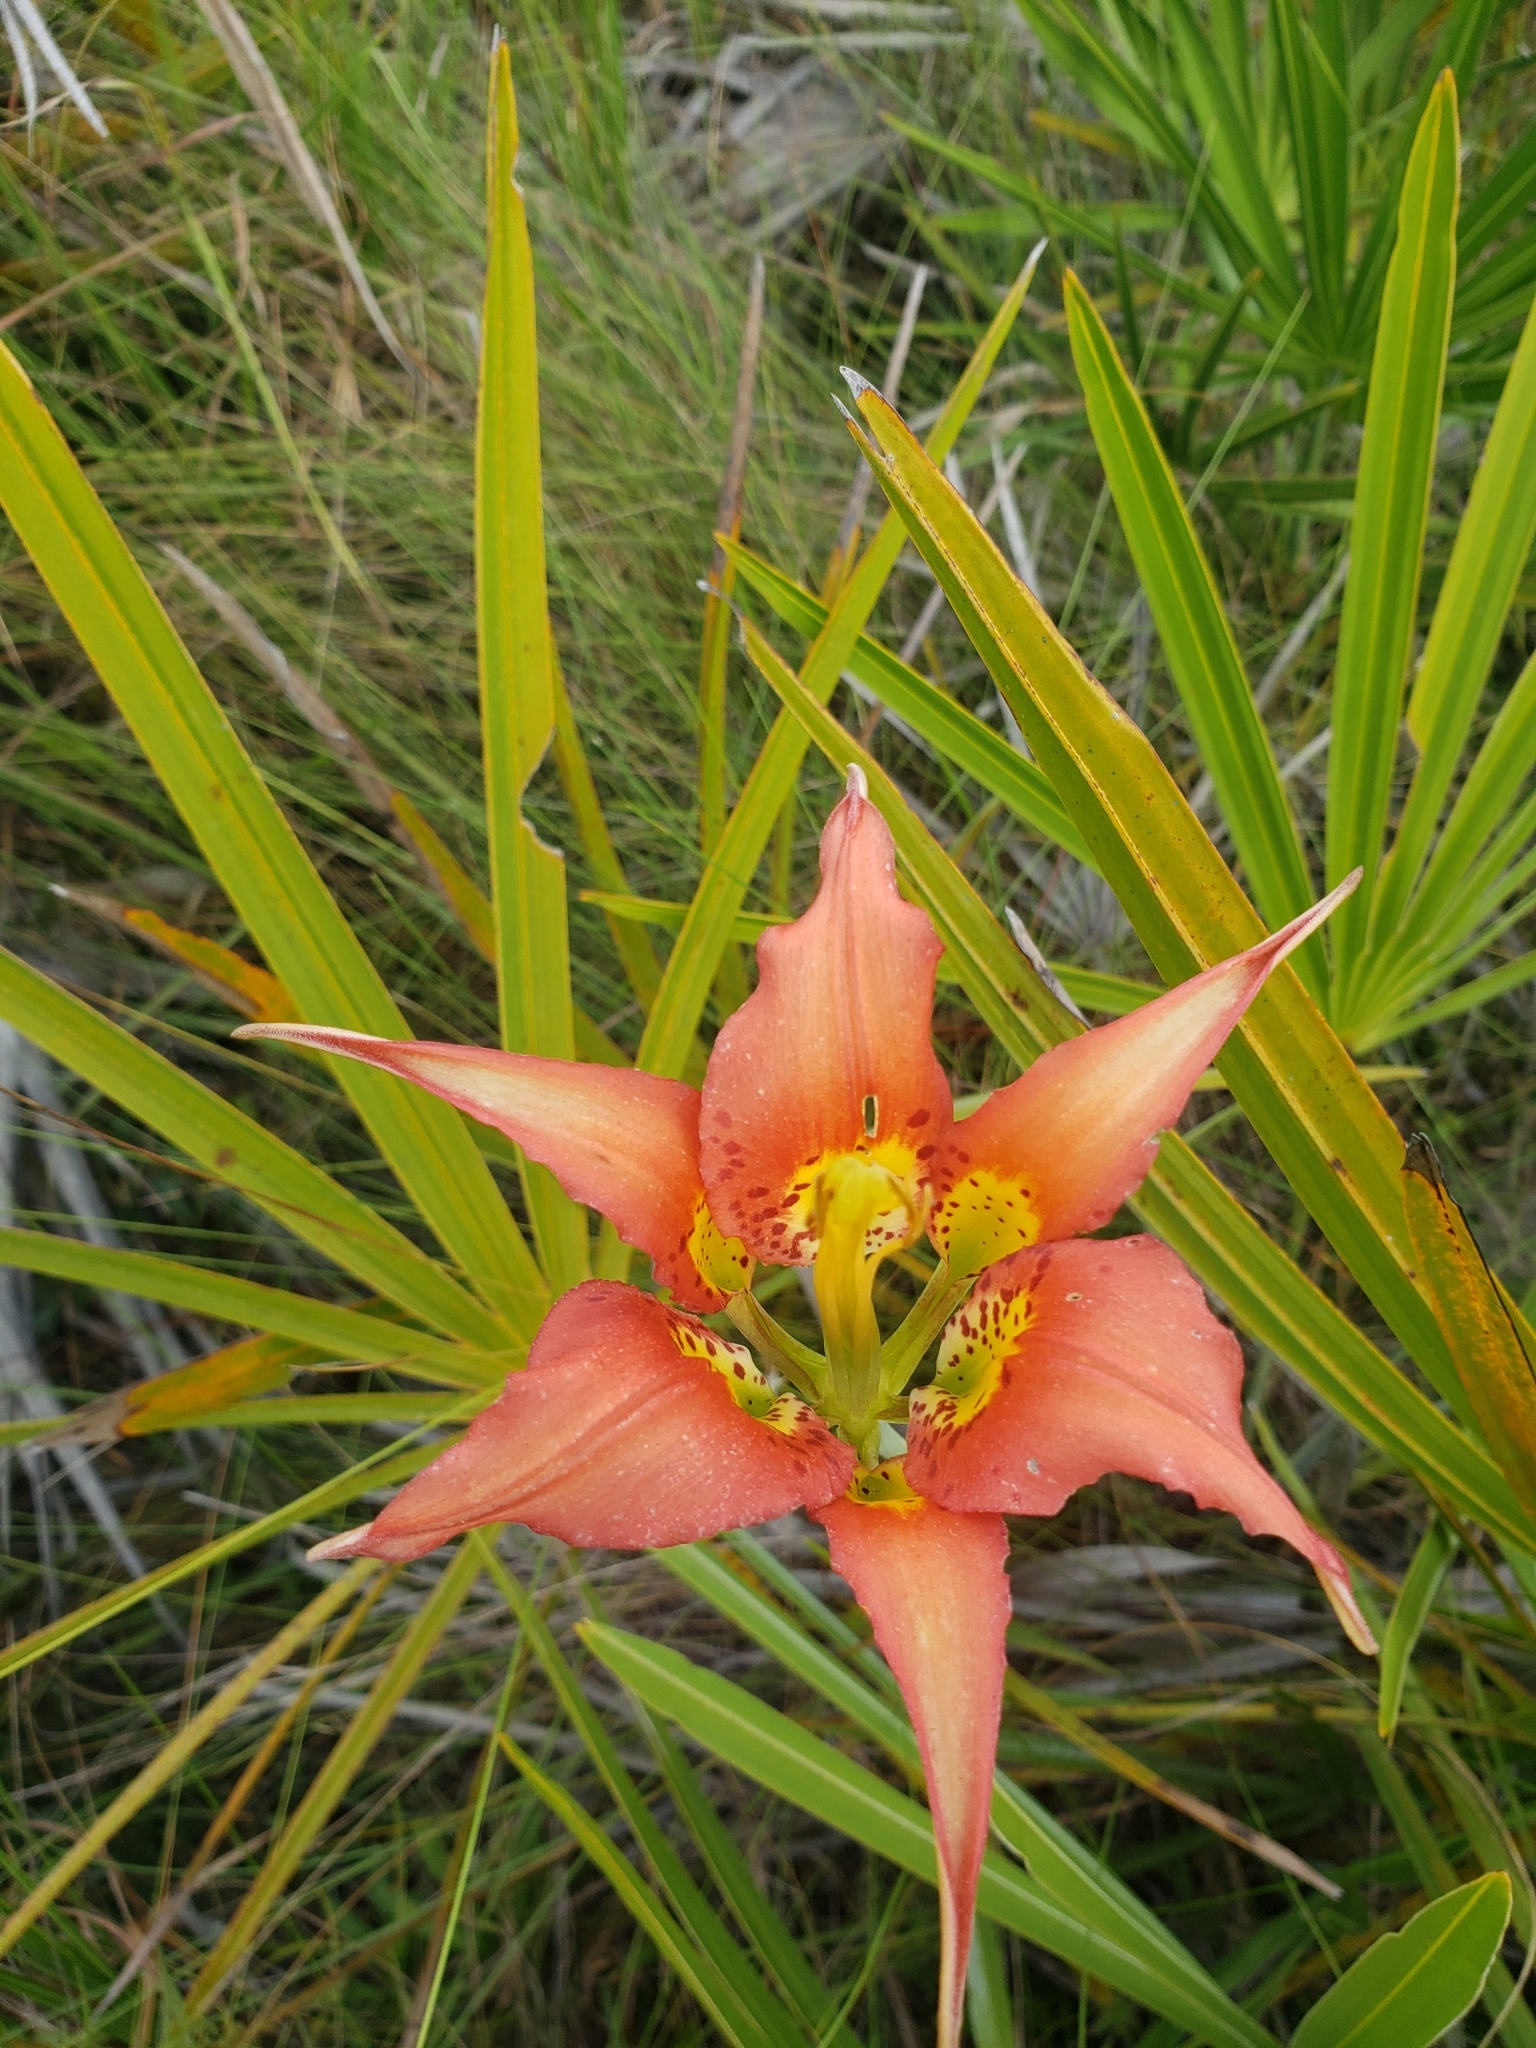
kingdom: Plantae
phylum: Tracheophyta
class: Liliopsida
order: Liliales
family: Liliaceae
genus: Lilium
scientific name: Lilium catesbaei
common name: Catesby's lily
